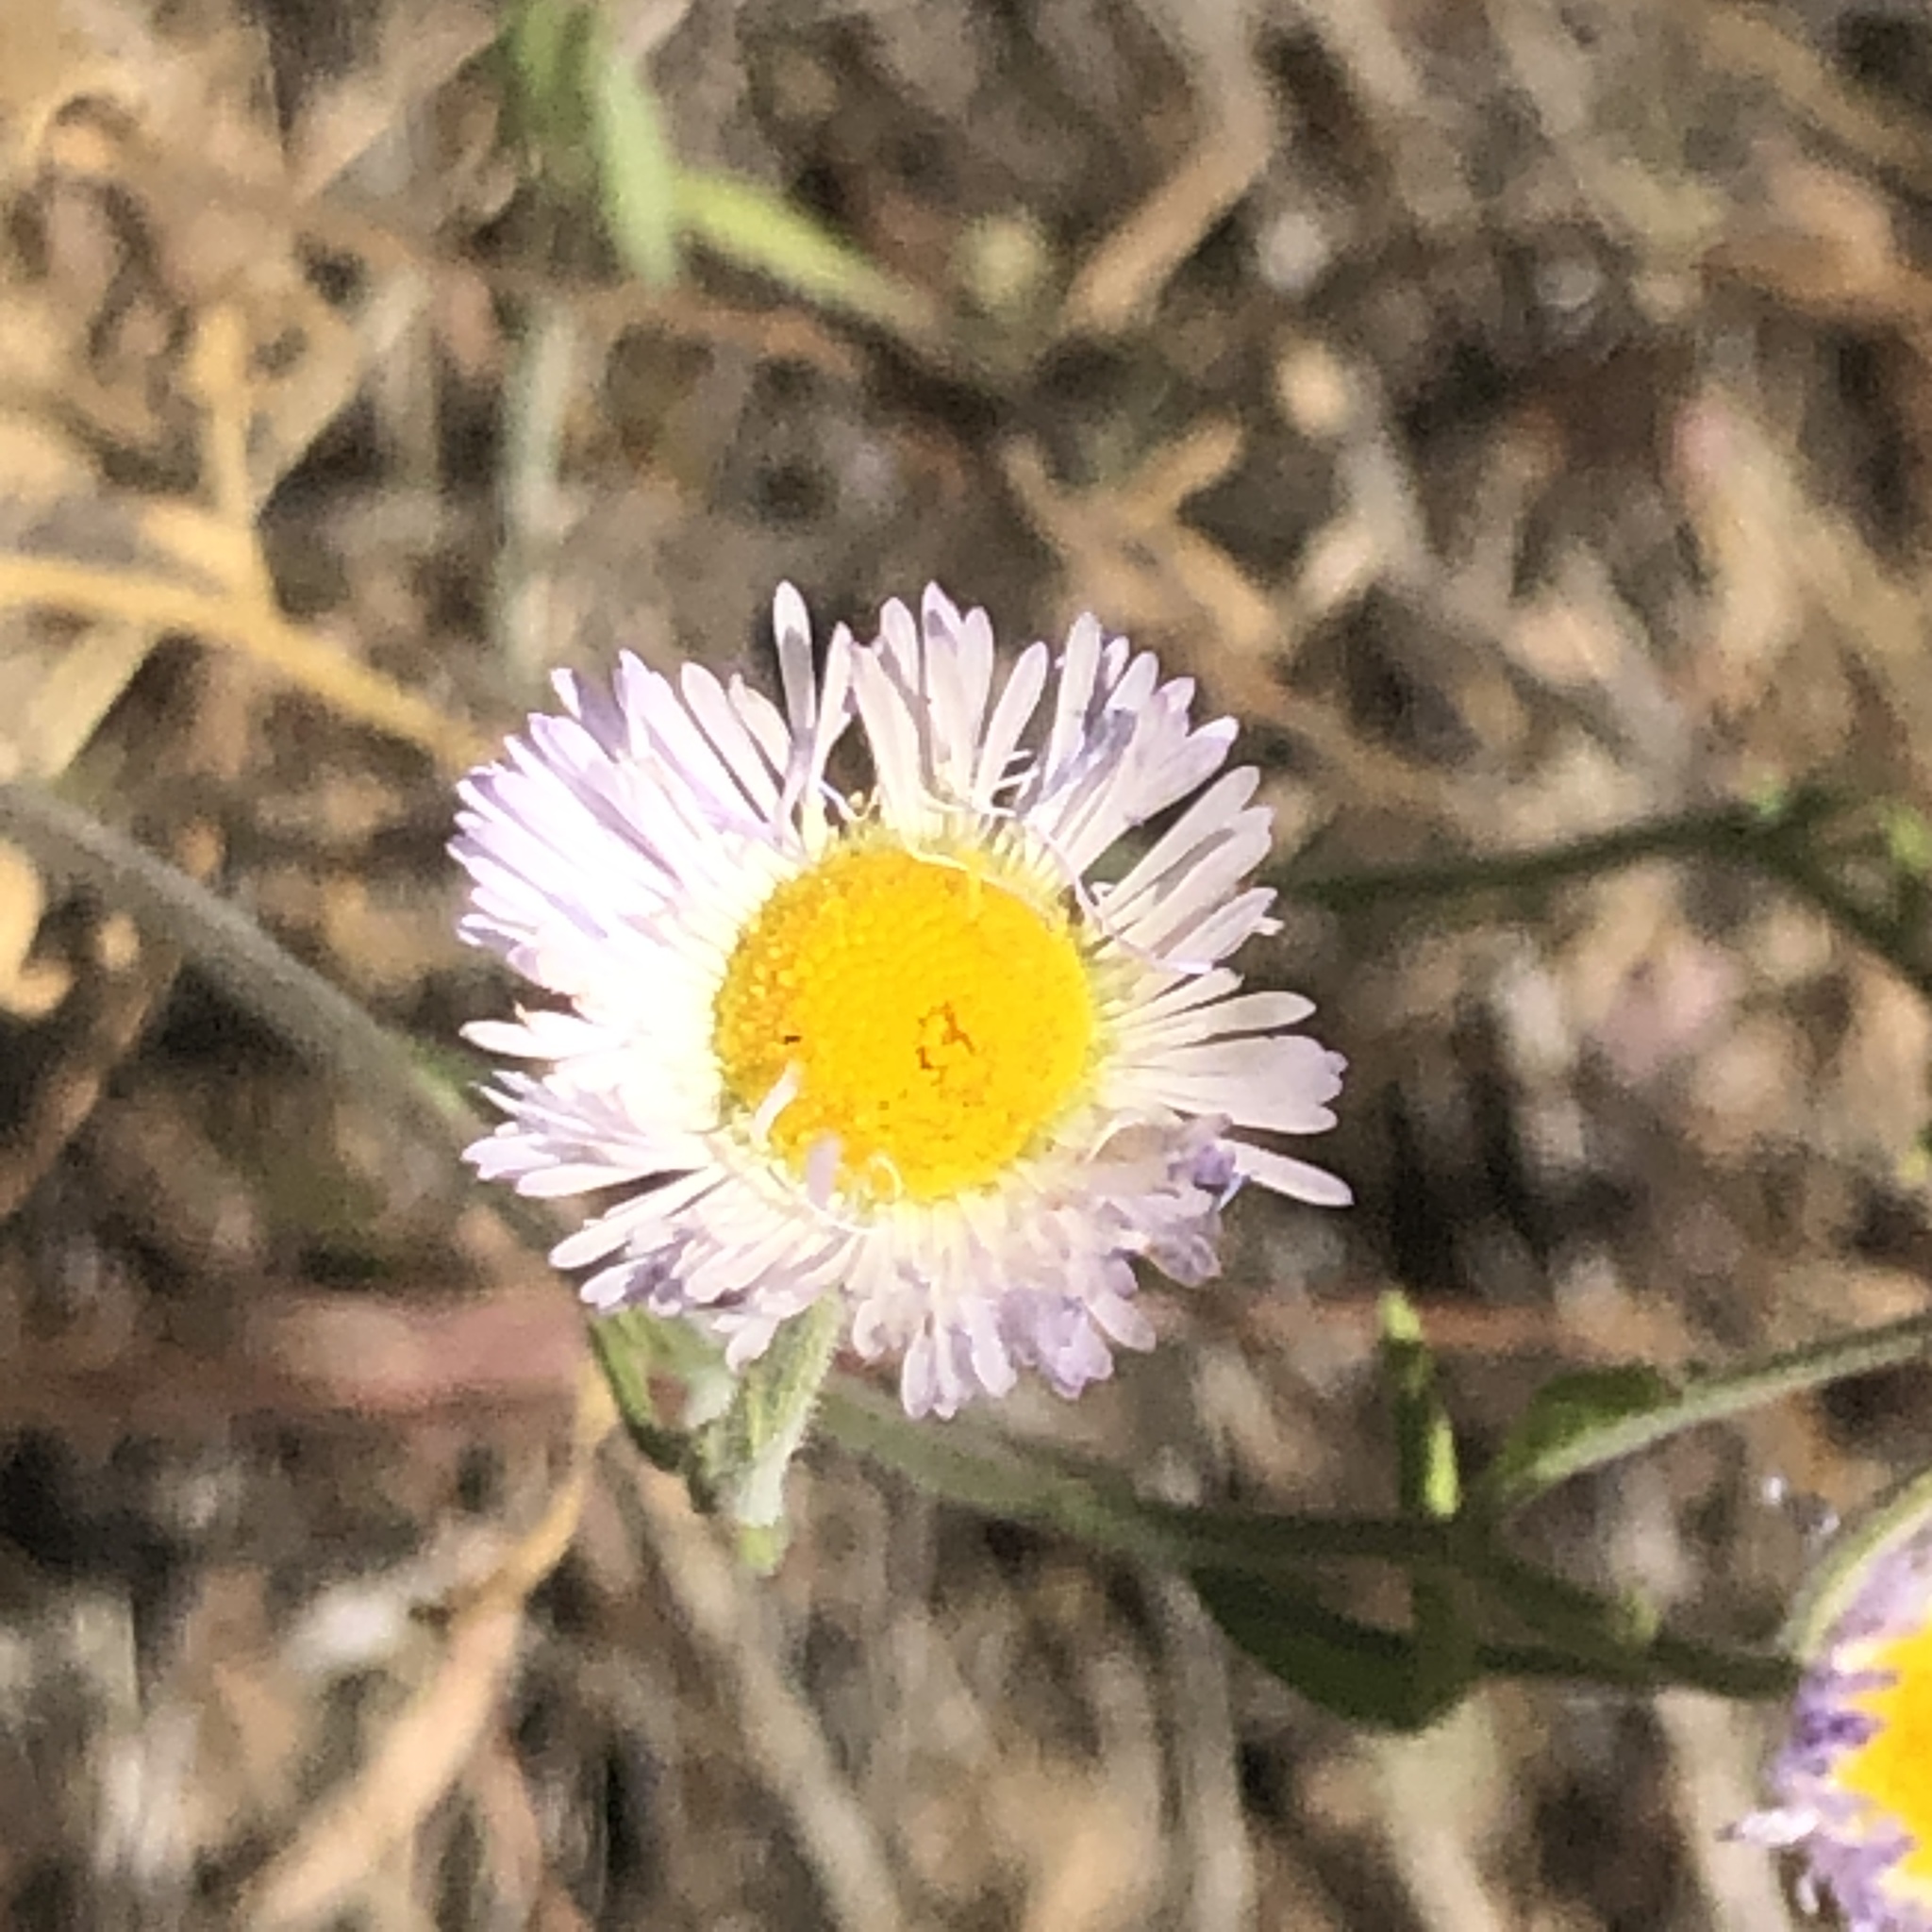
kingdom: Plantae
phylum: Tracheophyta
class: Magnoliopsida
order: Asterales
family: Asteraceae
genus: Erigeron
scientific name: Erigeron divergens
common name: Diffuse fleabane
